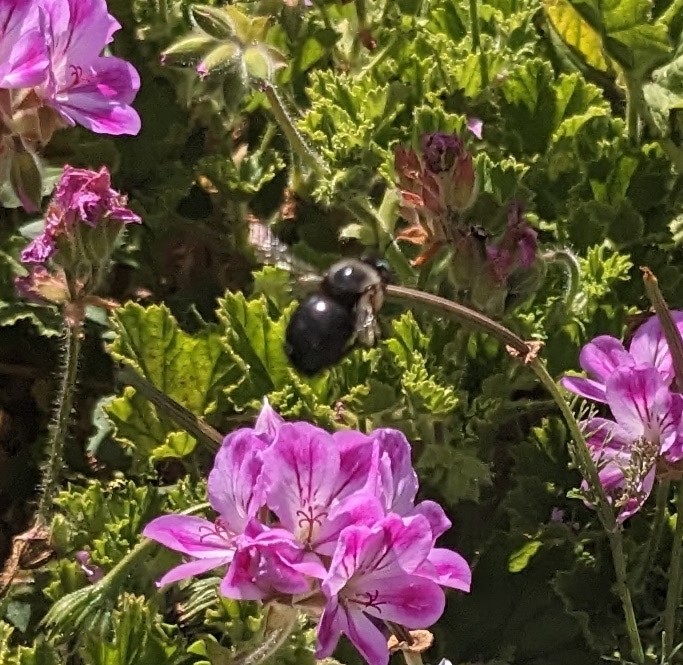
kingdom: Animalia
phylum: Arthropoda
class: Insecta
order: Hymenoptera
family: Apidae
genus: Xylocopa
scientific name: Xylocopa tabaniformis
